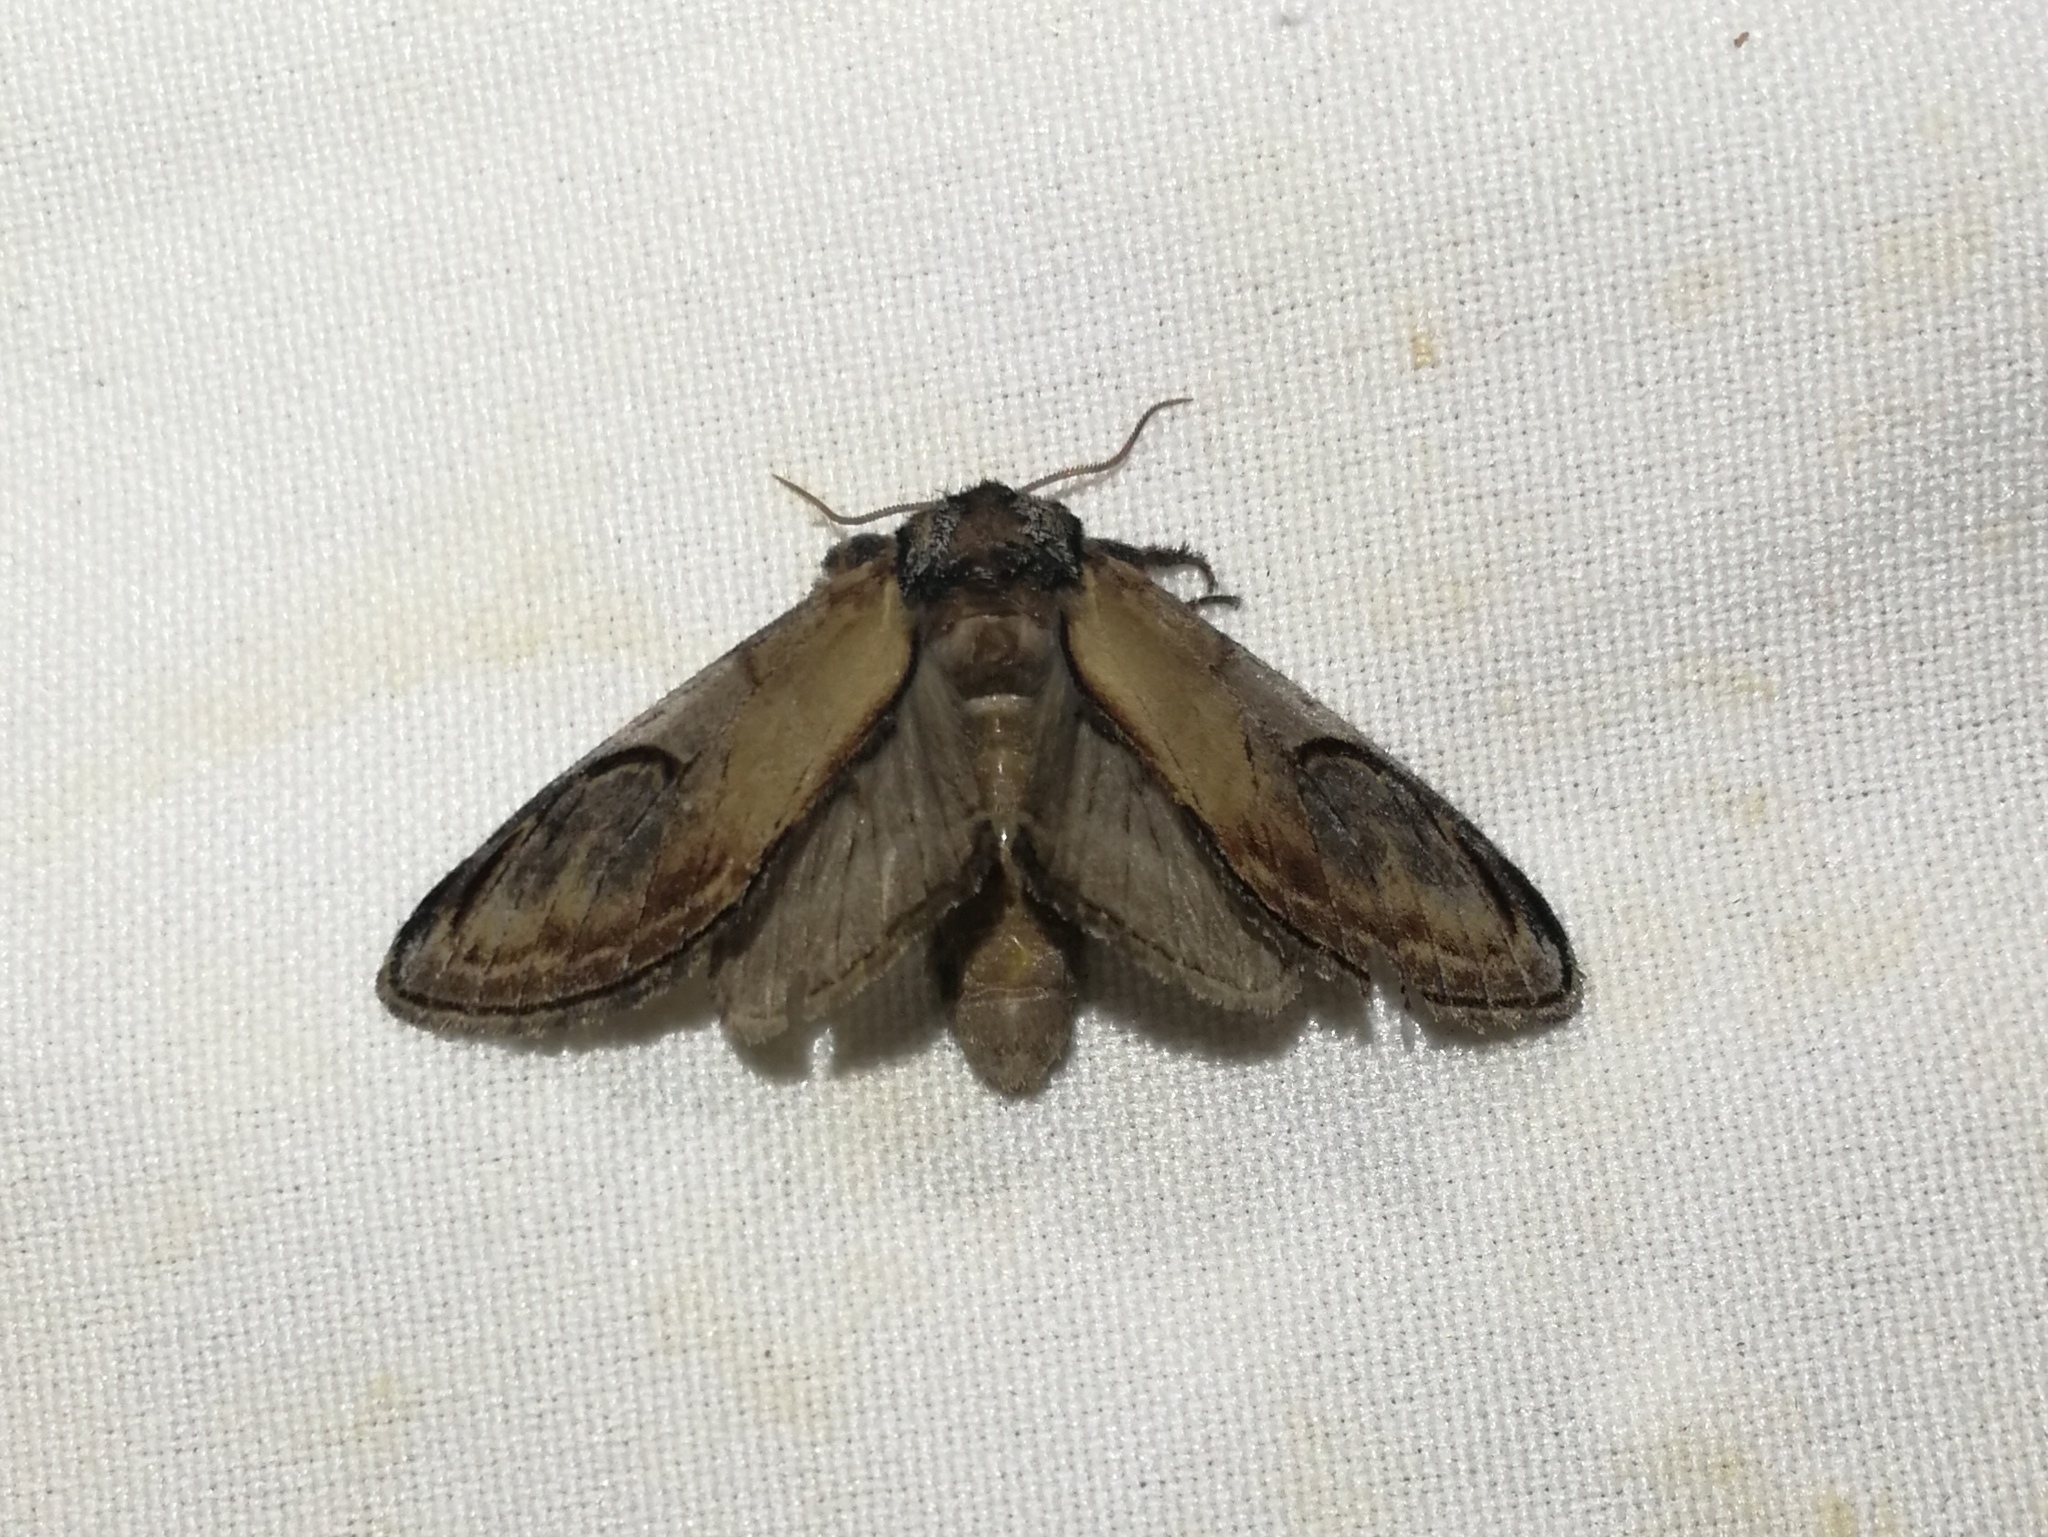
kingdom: Animalia
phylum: Arthropoda
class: Insecta
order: Lepidoptera
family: Notodontidae
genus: Notodonta
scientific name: Notodonta ziczac
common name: Pebble prominent
